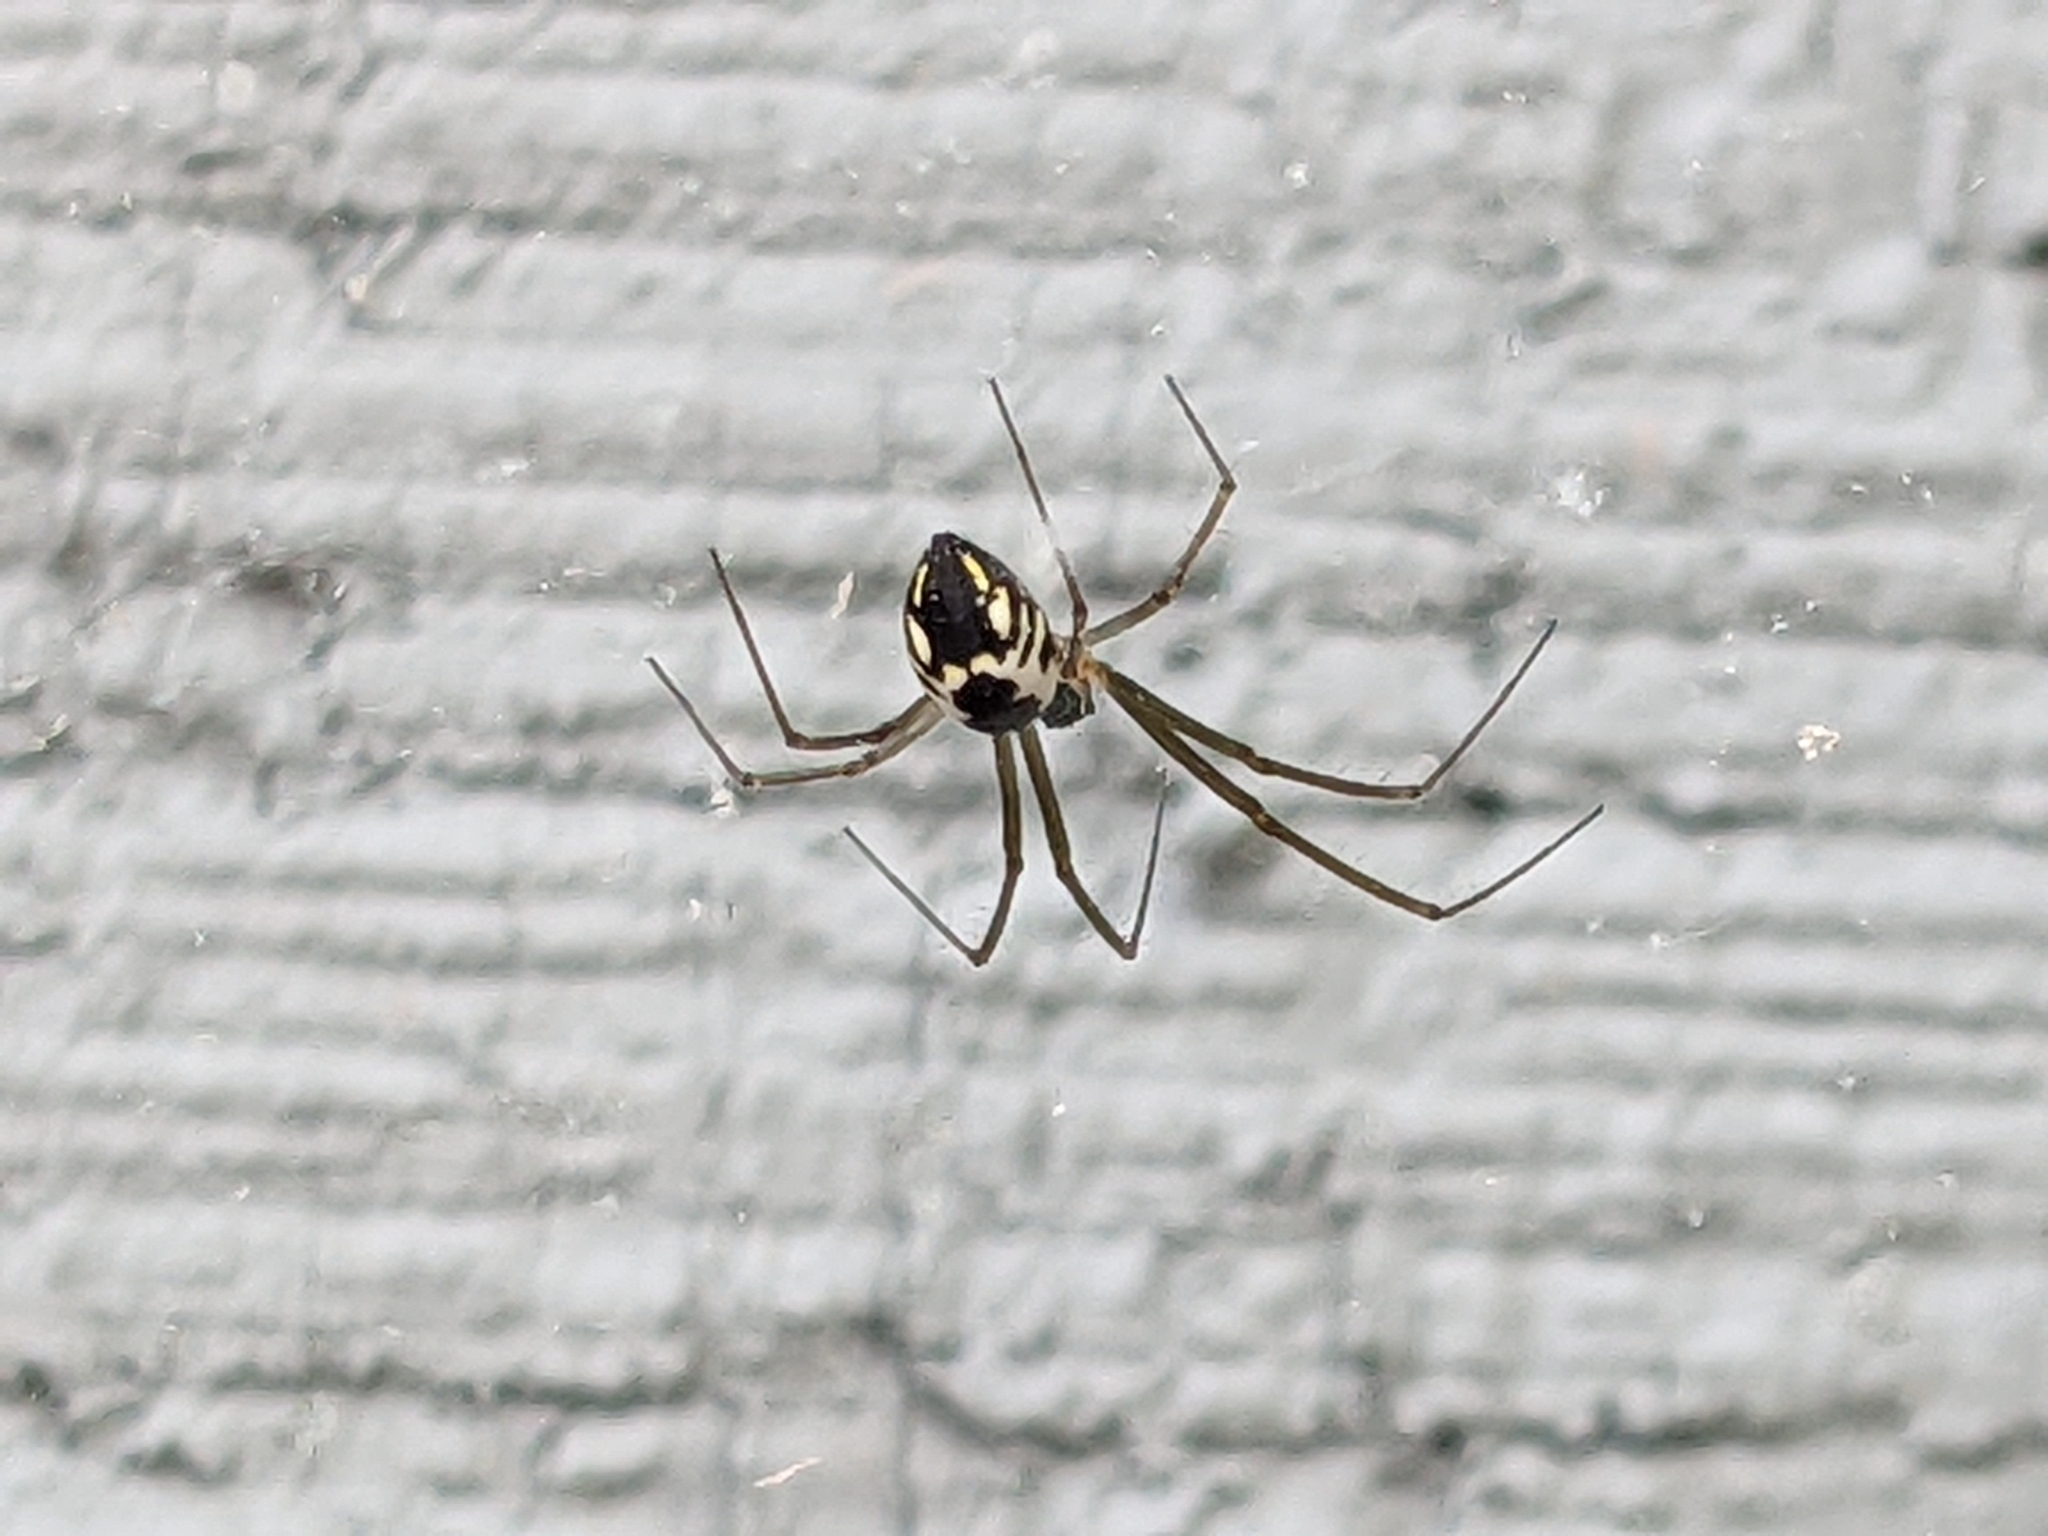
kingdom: Animalia
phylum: Arthropoda
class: Arachnida
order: Araneae
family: Linyphiidae
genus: Neriene
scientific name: Neriene radiata
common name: Filmy dome spider
